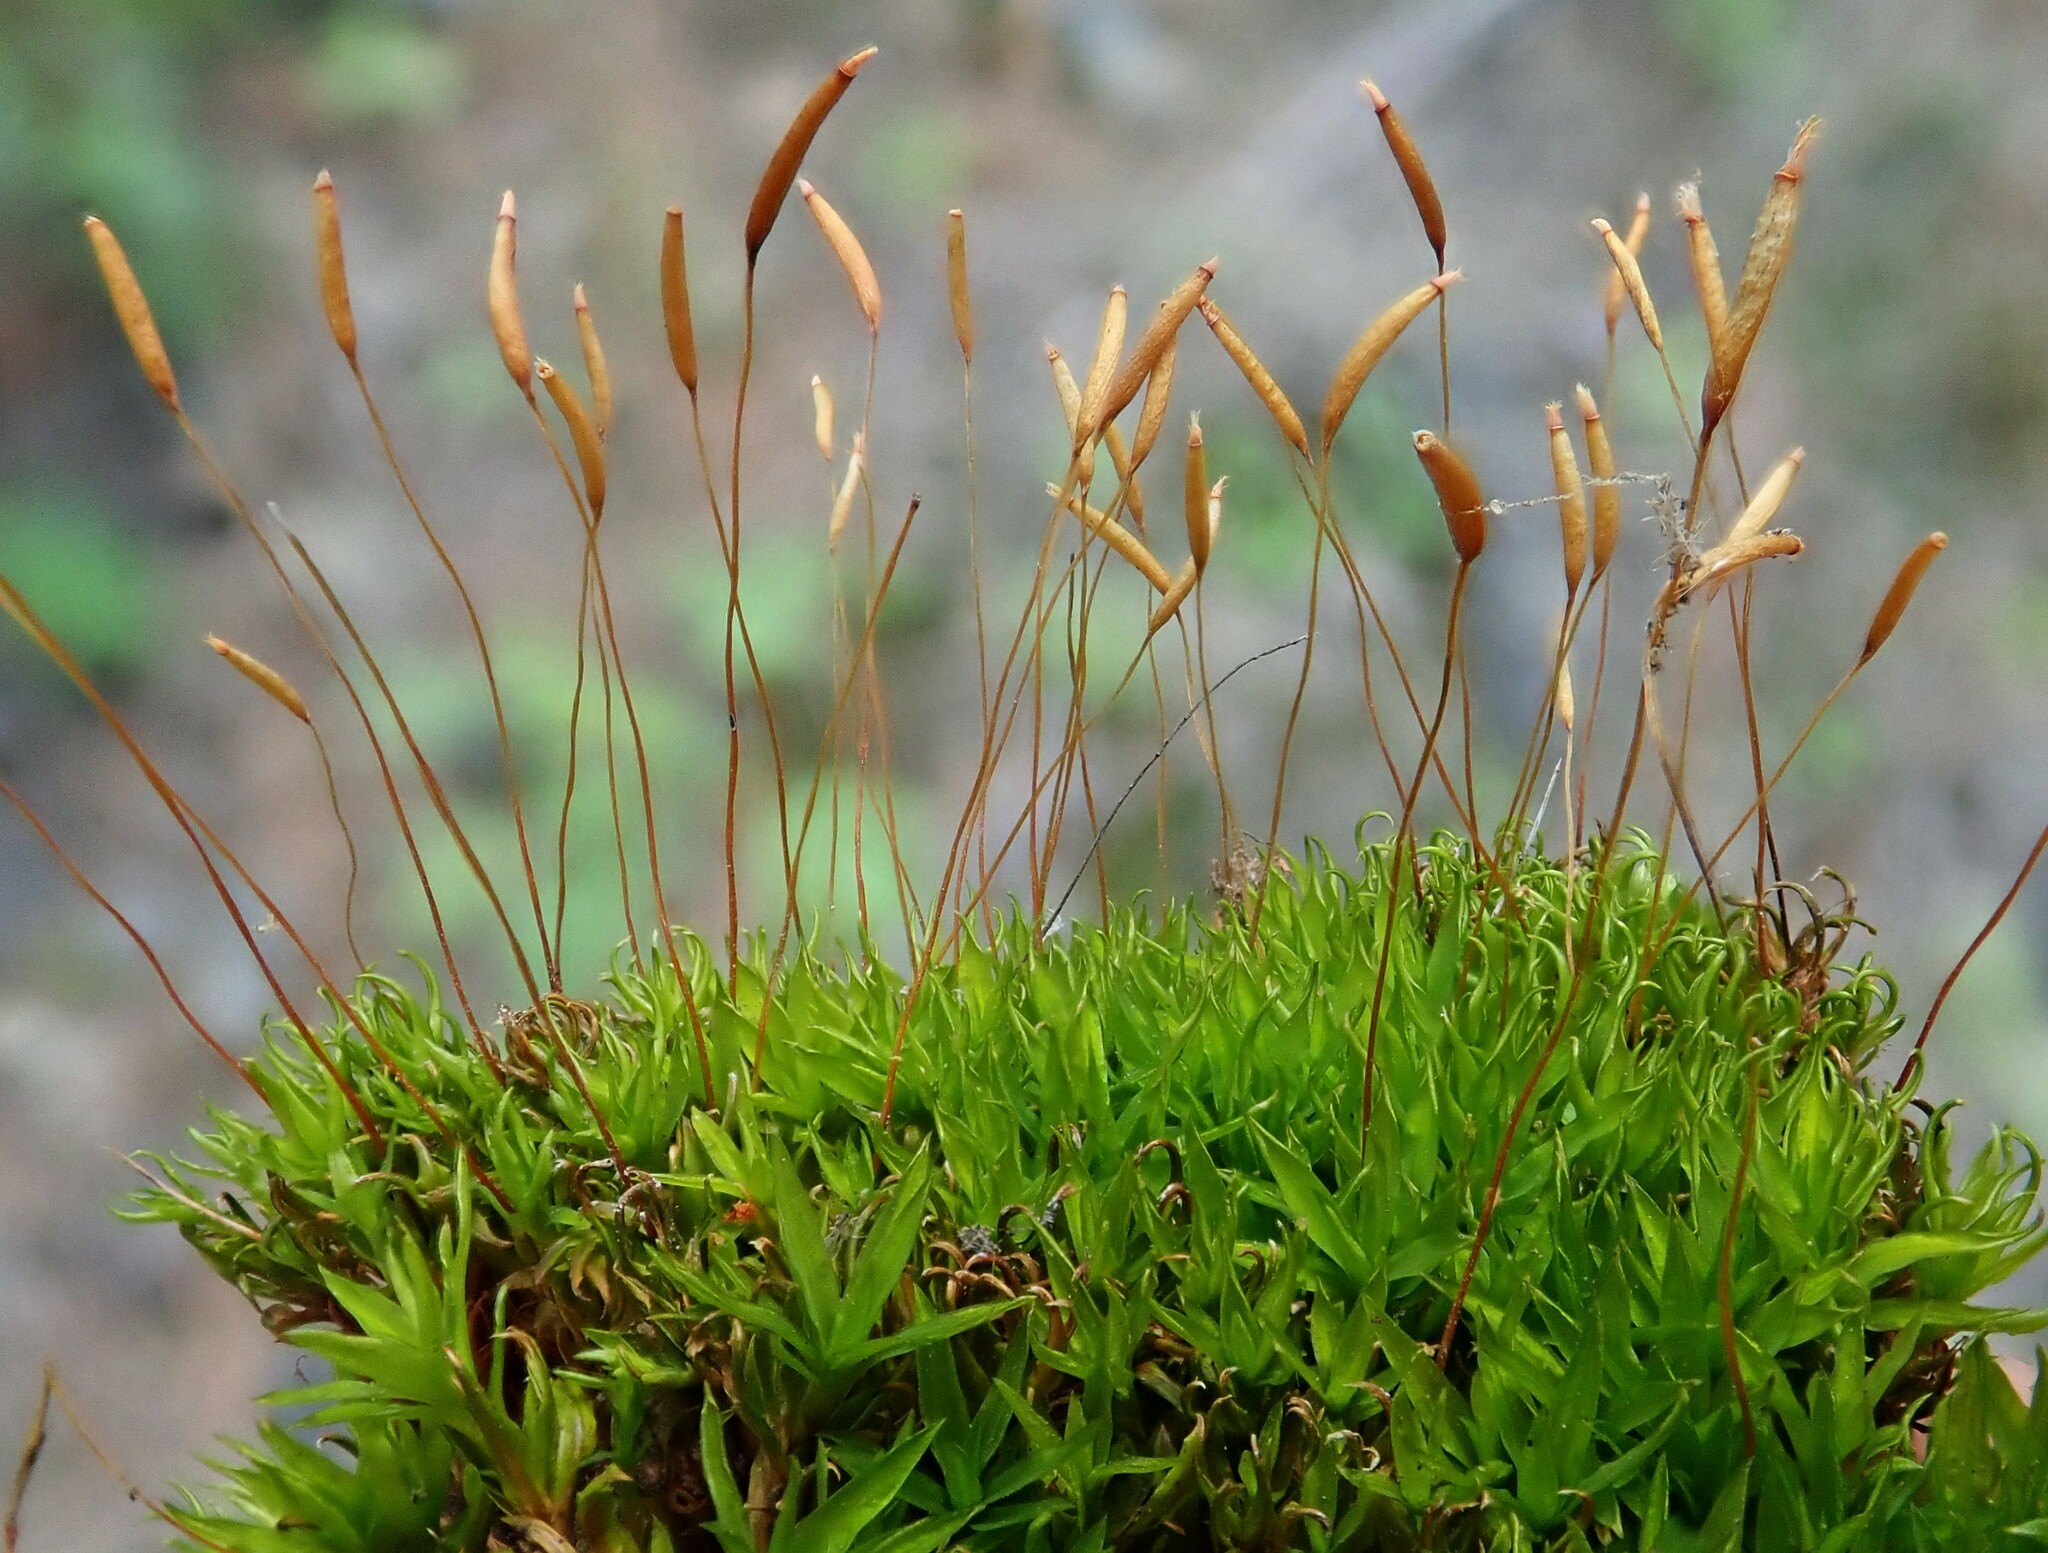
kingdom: Plantae
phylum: Bryophyta
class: Bryopsida
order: Scouleriales
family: Timmiellaceae
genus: Timmiella
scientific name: Timmiella barbuloides
